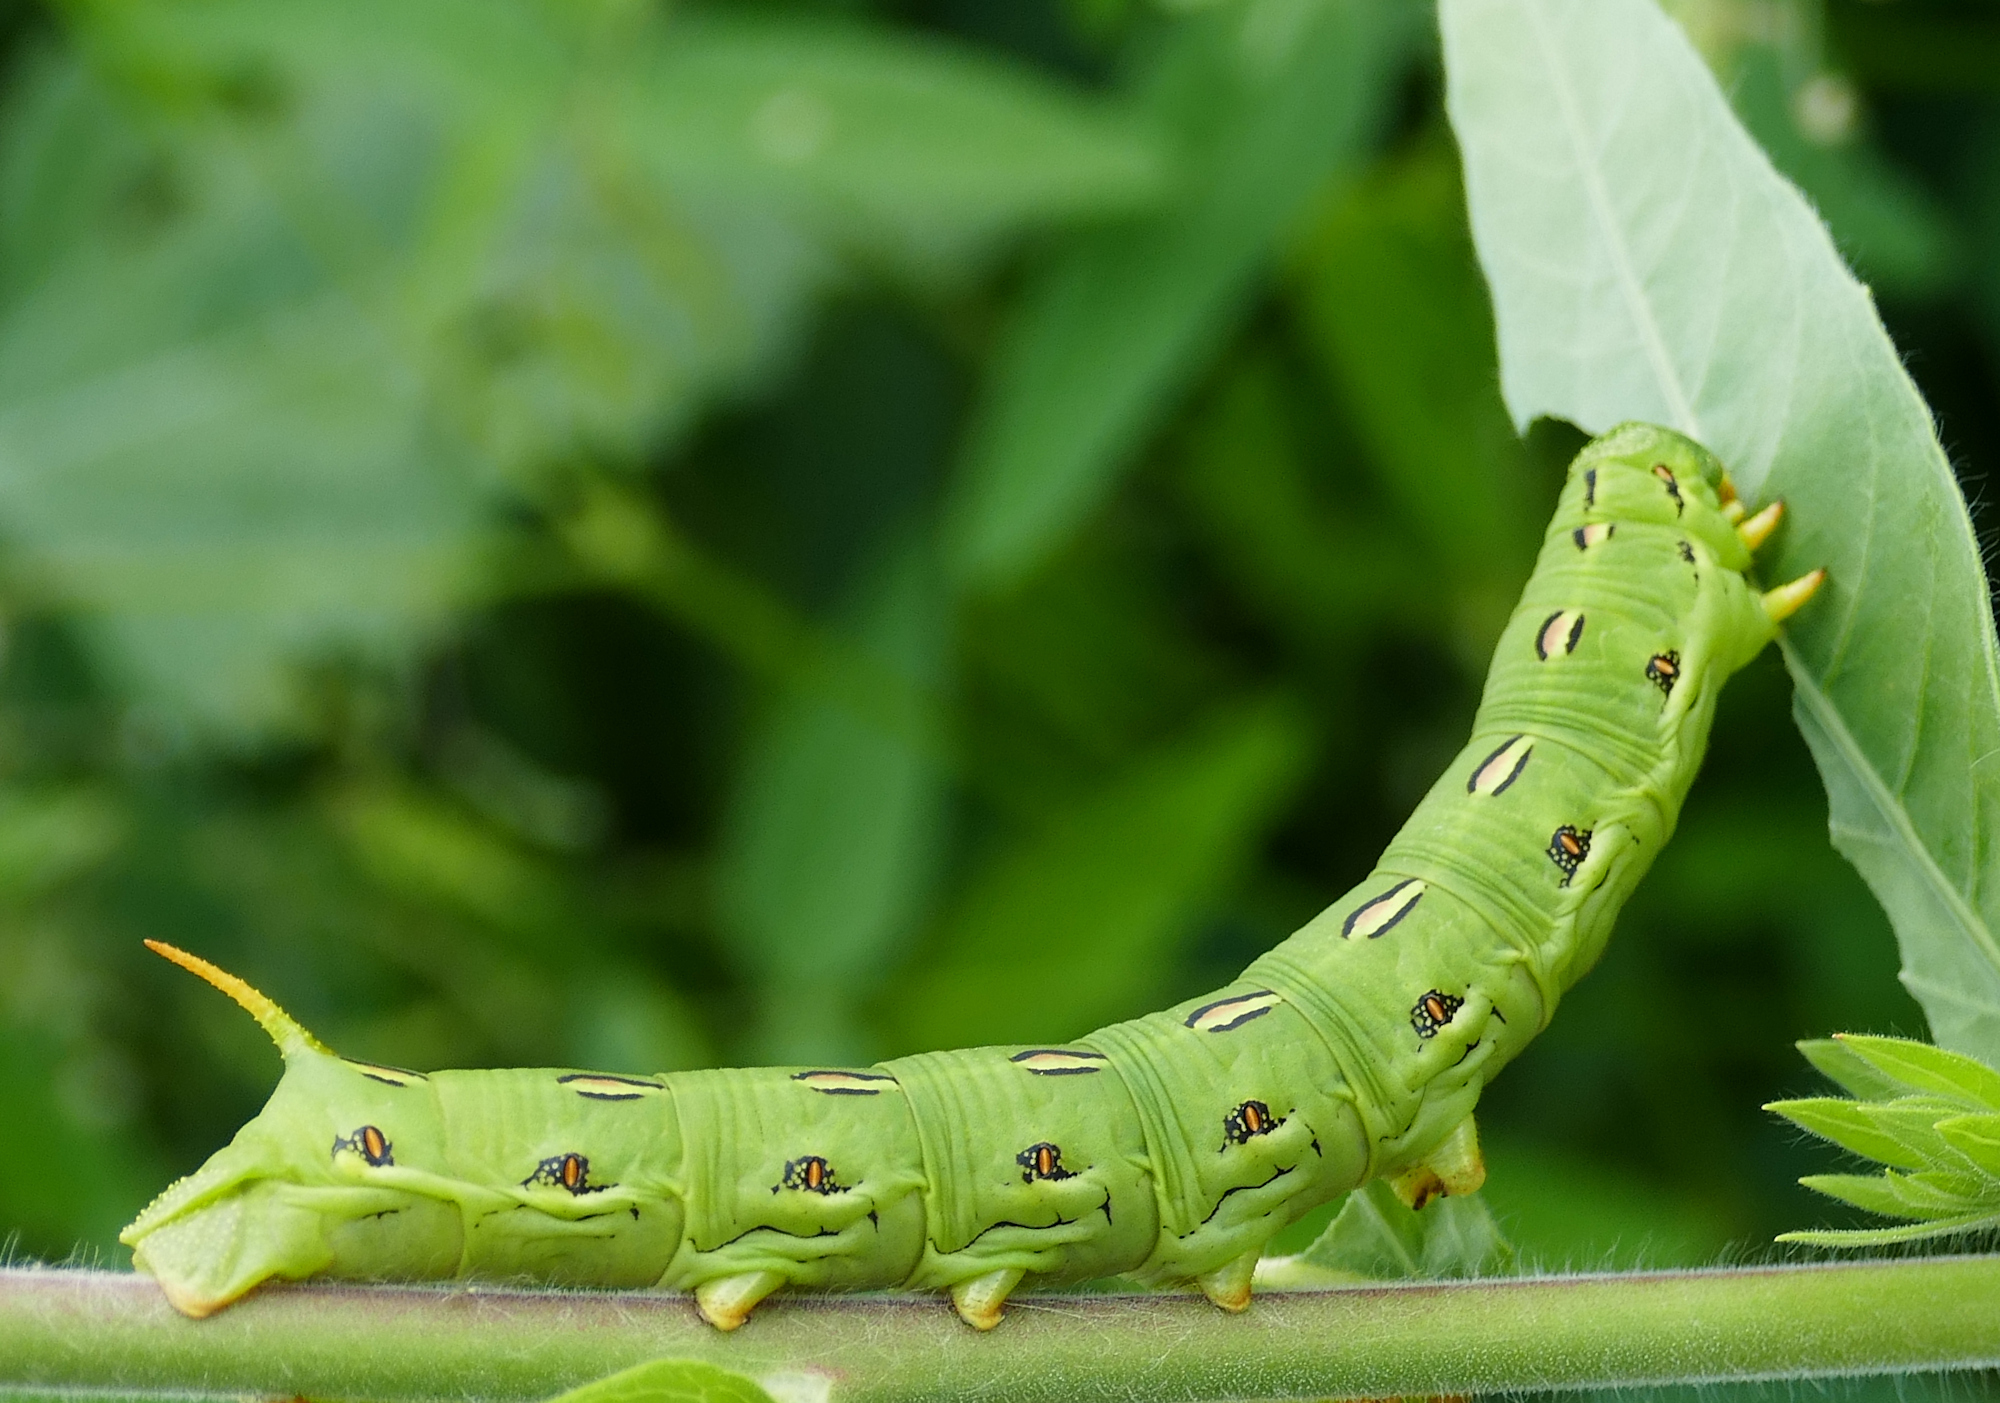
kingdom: Animalia
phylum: Arthropoda
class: Insecta
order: Lepidoptera
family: Sphingidae
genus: Hyles
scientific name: Hyles lineata
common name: White-lined sphinx
